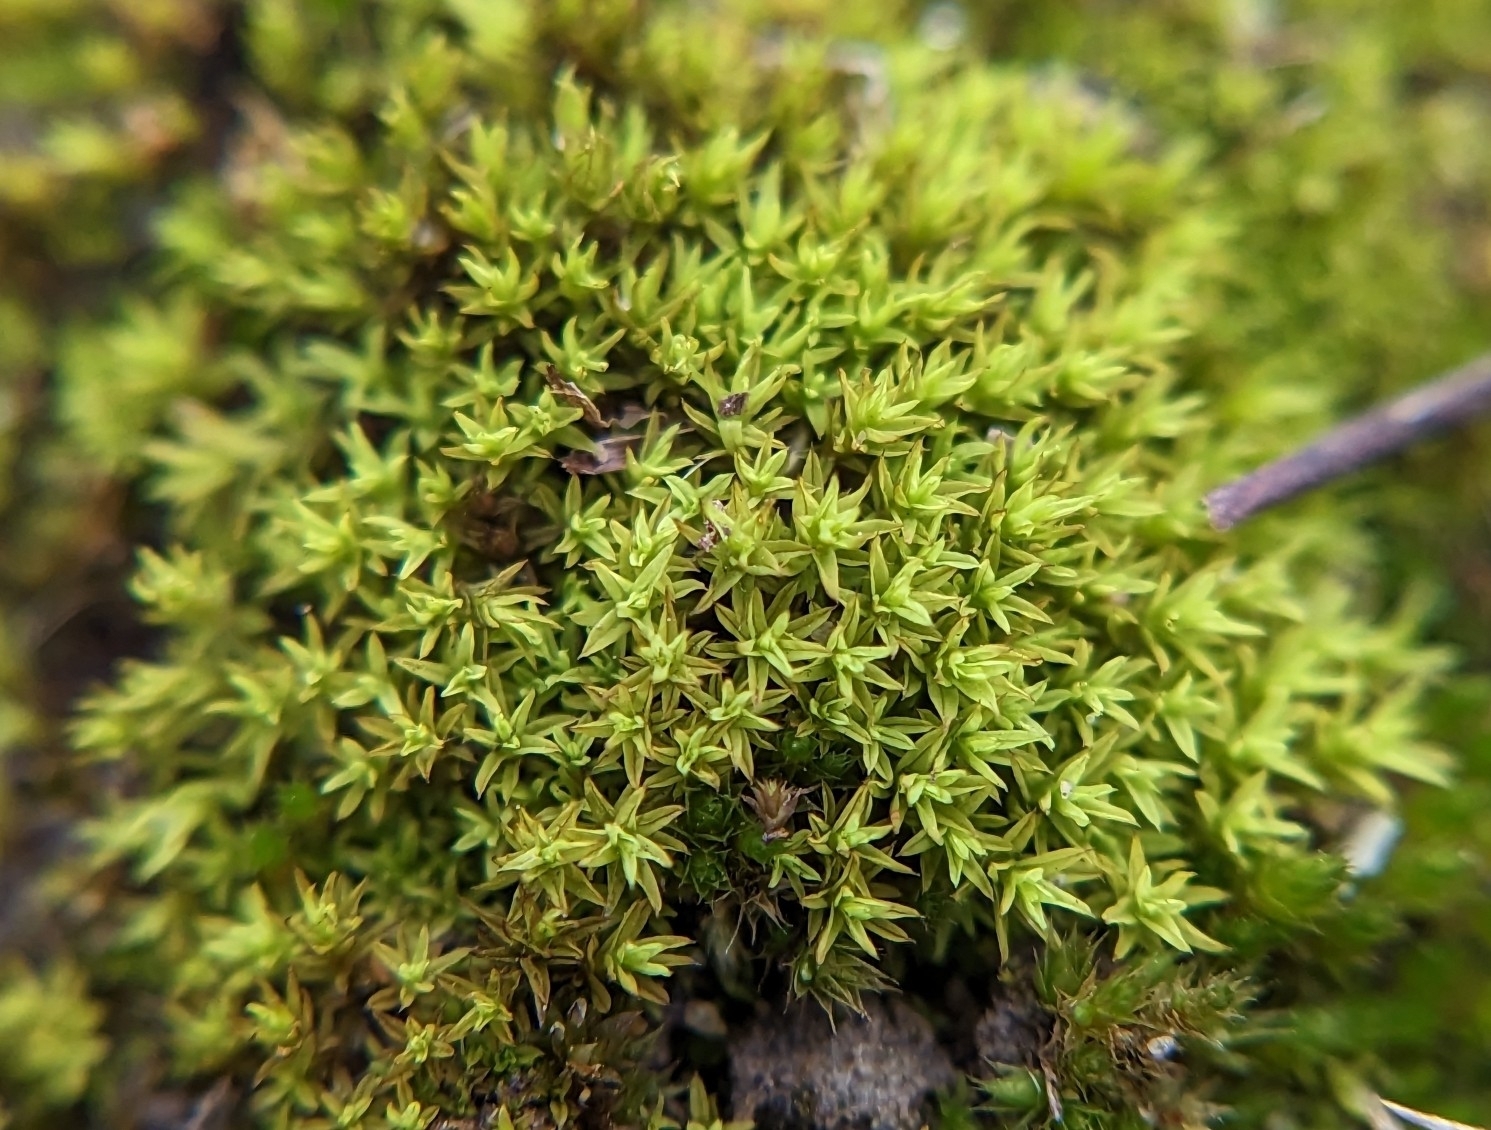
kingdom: Plantae
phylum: Bryophyta
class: Bryopsida
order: Pottiales
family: Pottiaceae
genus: Barbula
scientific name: Barbula unguiculata
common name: Prickly beard moss
